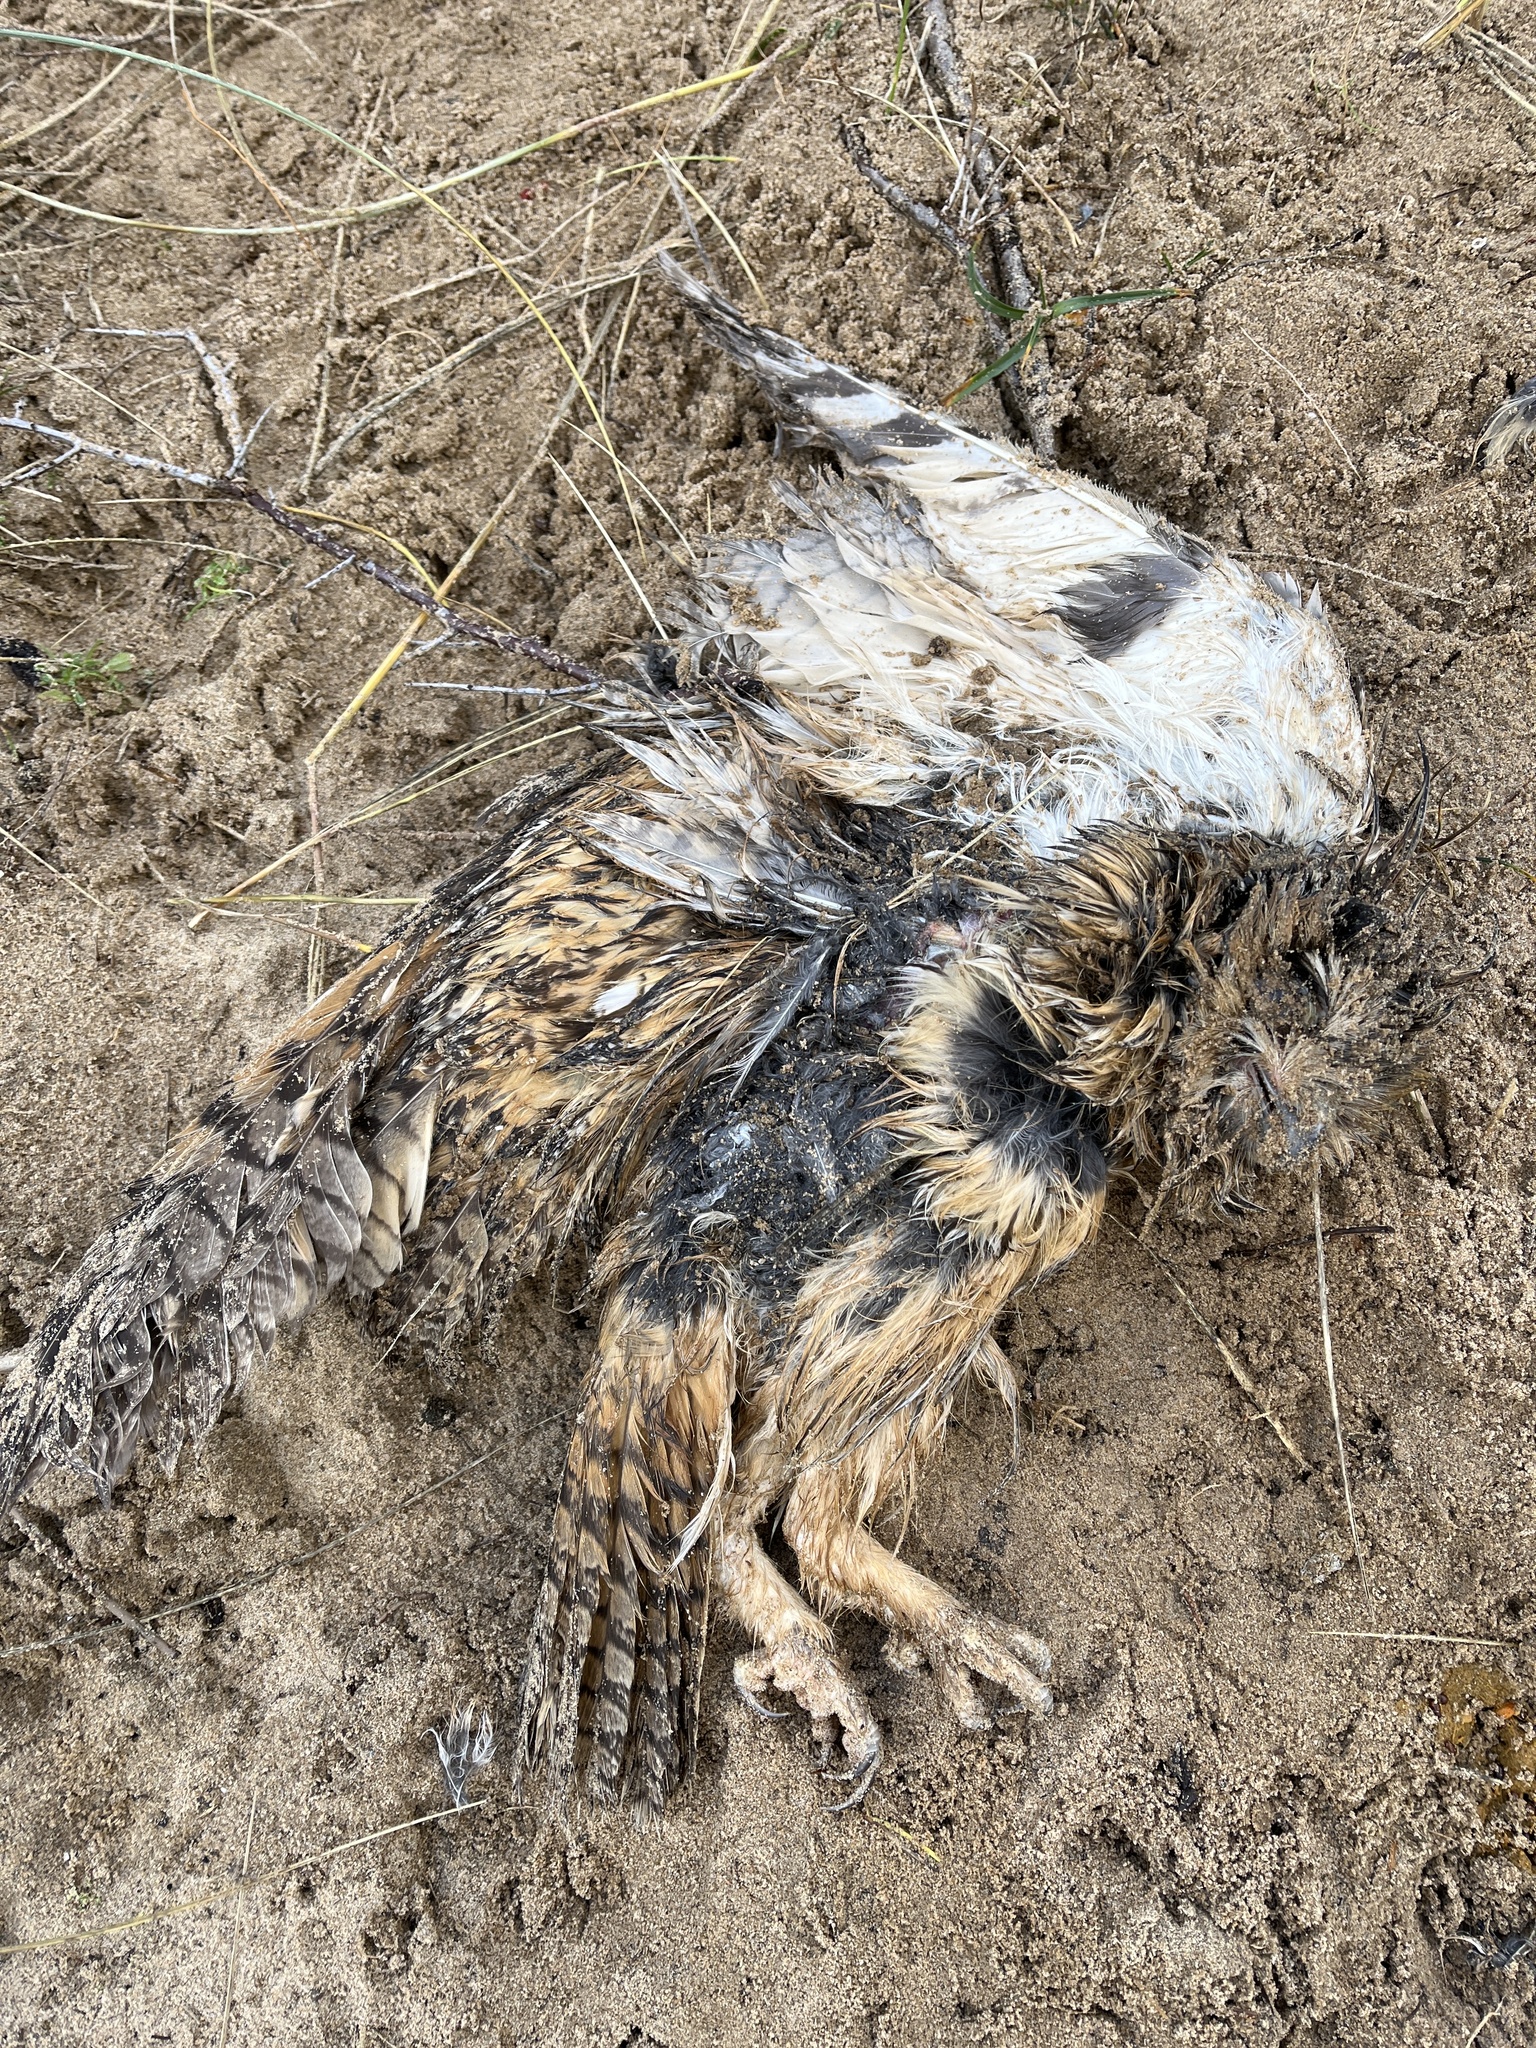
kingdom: Animalia
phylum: Chordata
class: Aves
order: Strigiformes
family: Strigidae
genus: Asio
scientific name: Asio otus
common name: Long-eared owl
